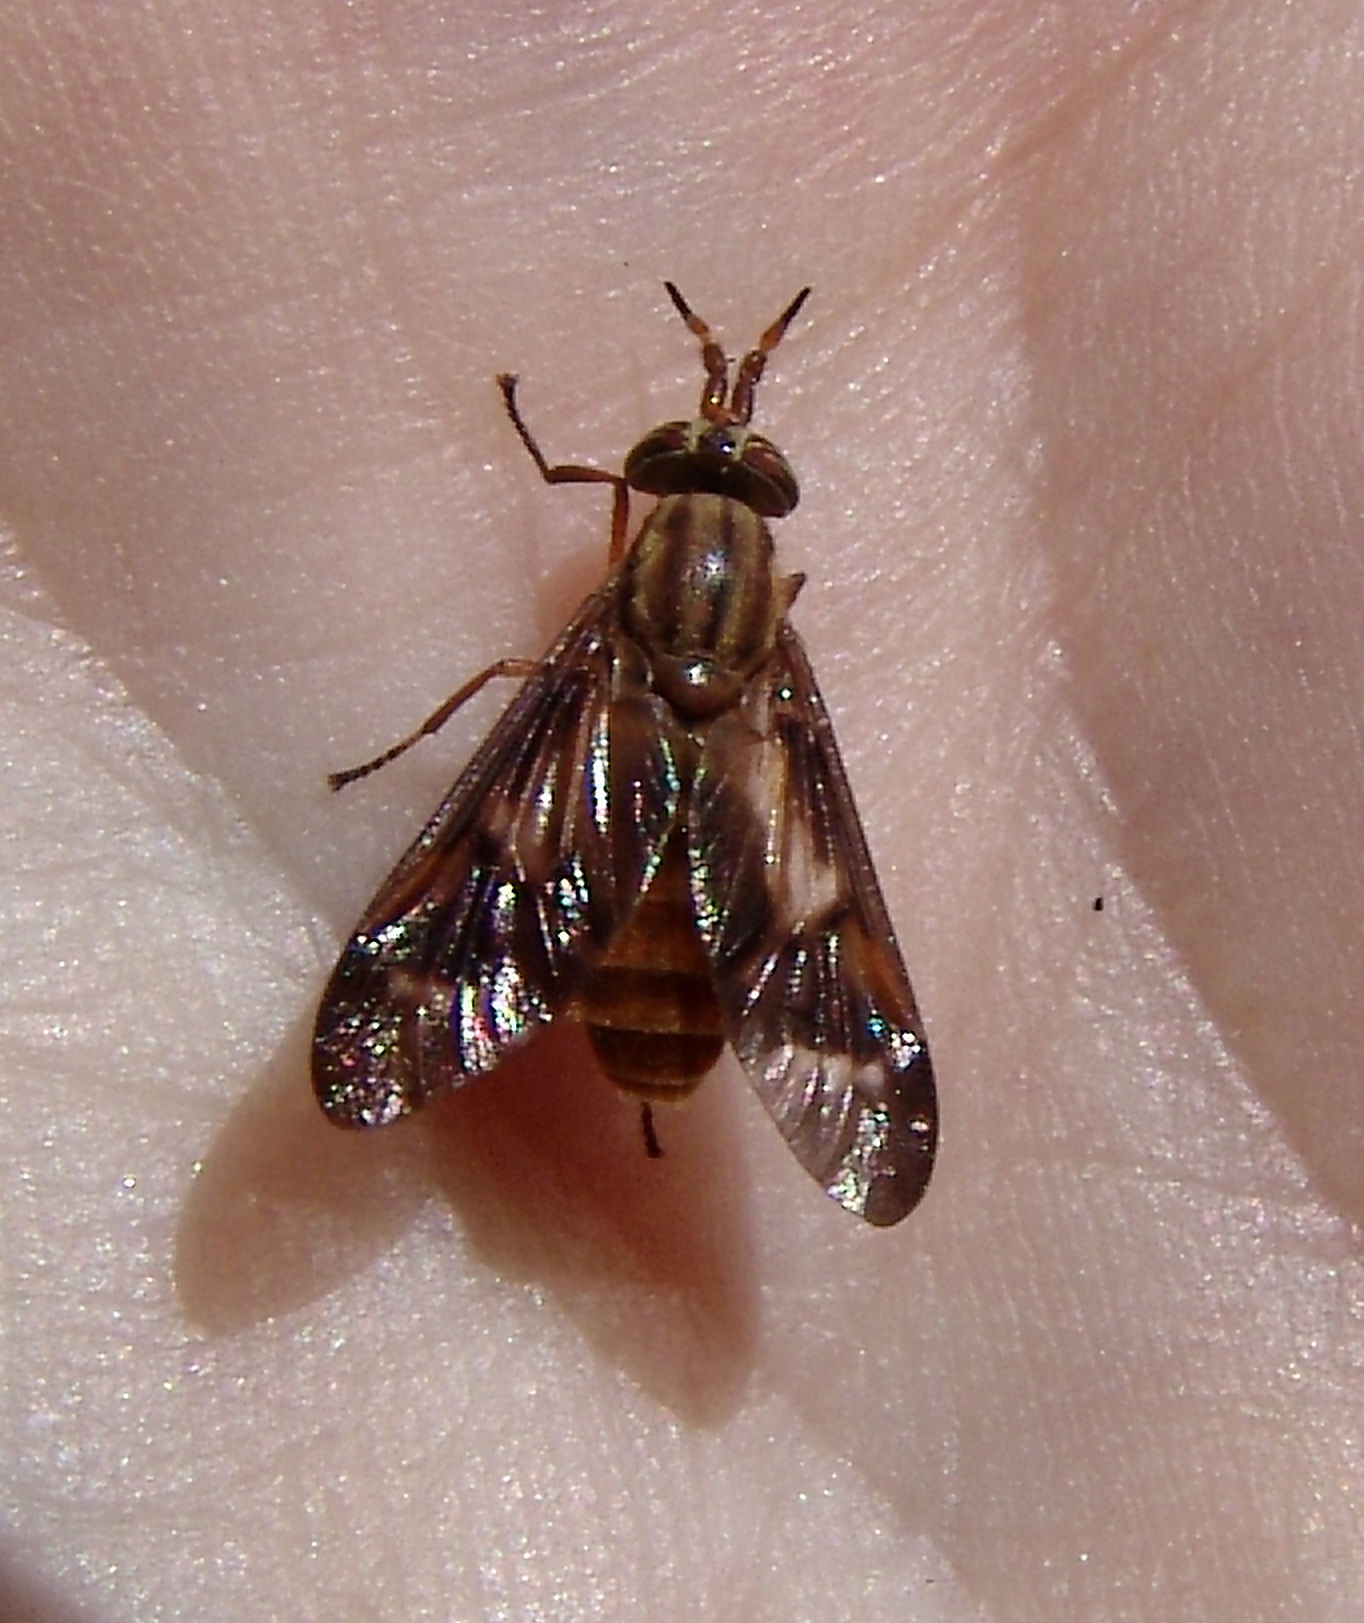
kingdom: Animalia
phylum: Arthropoda
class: Insecta
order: Diptera
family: Tabanidae
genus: Chrysops
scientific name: Chrysops brunneus
